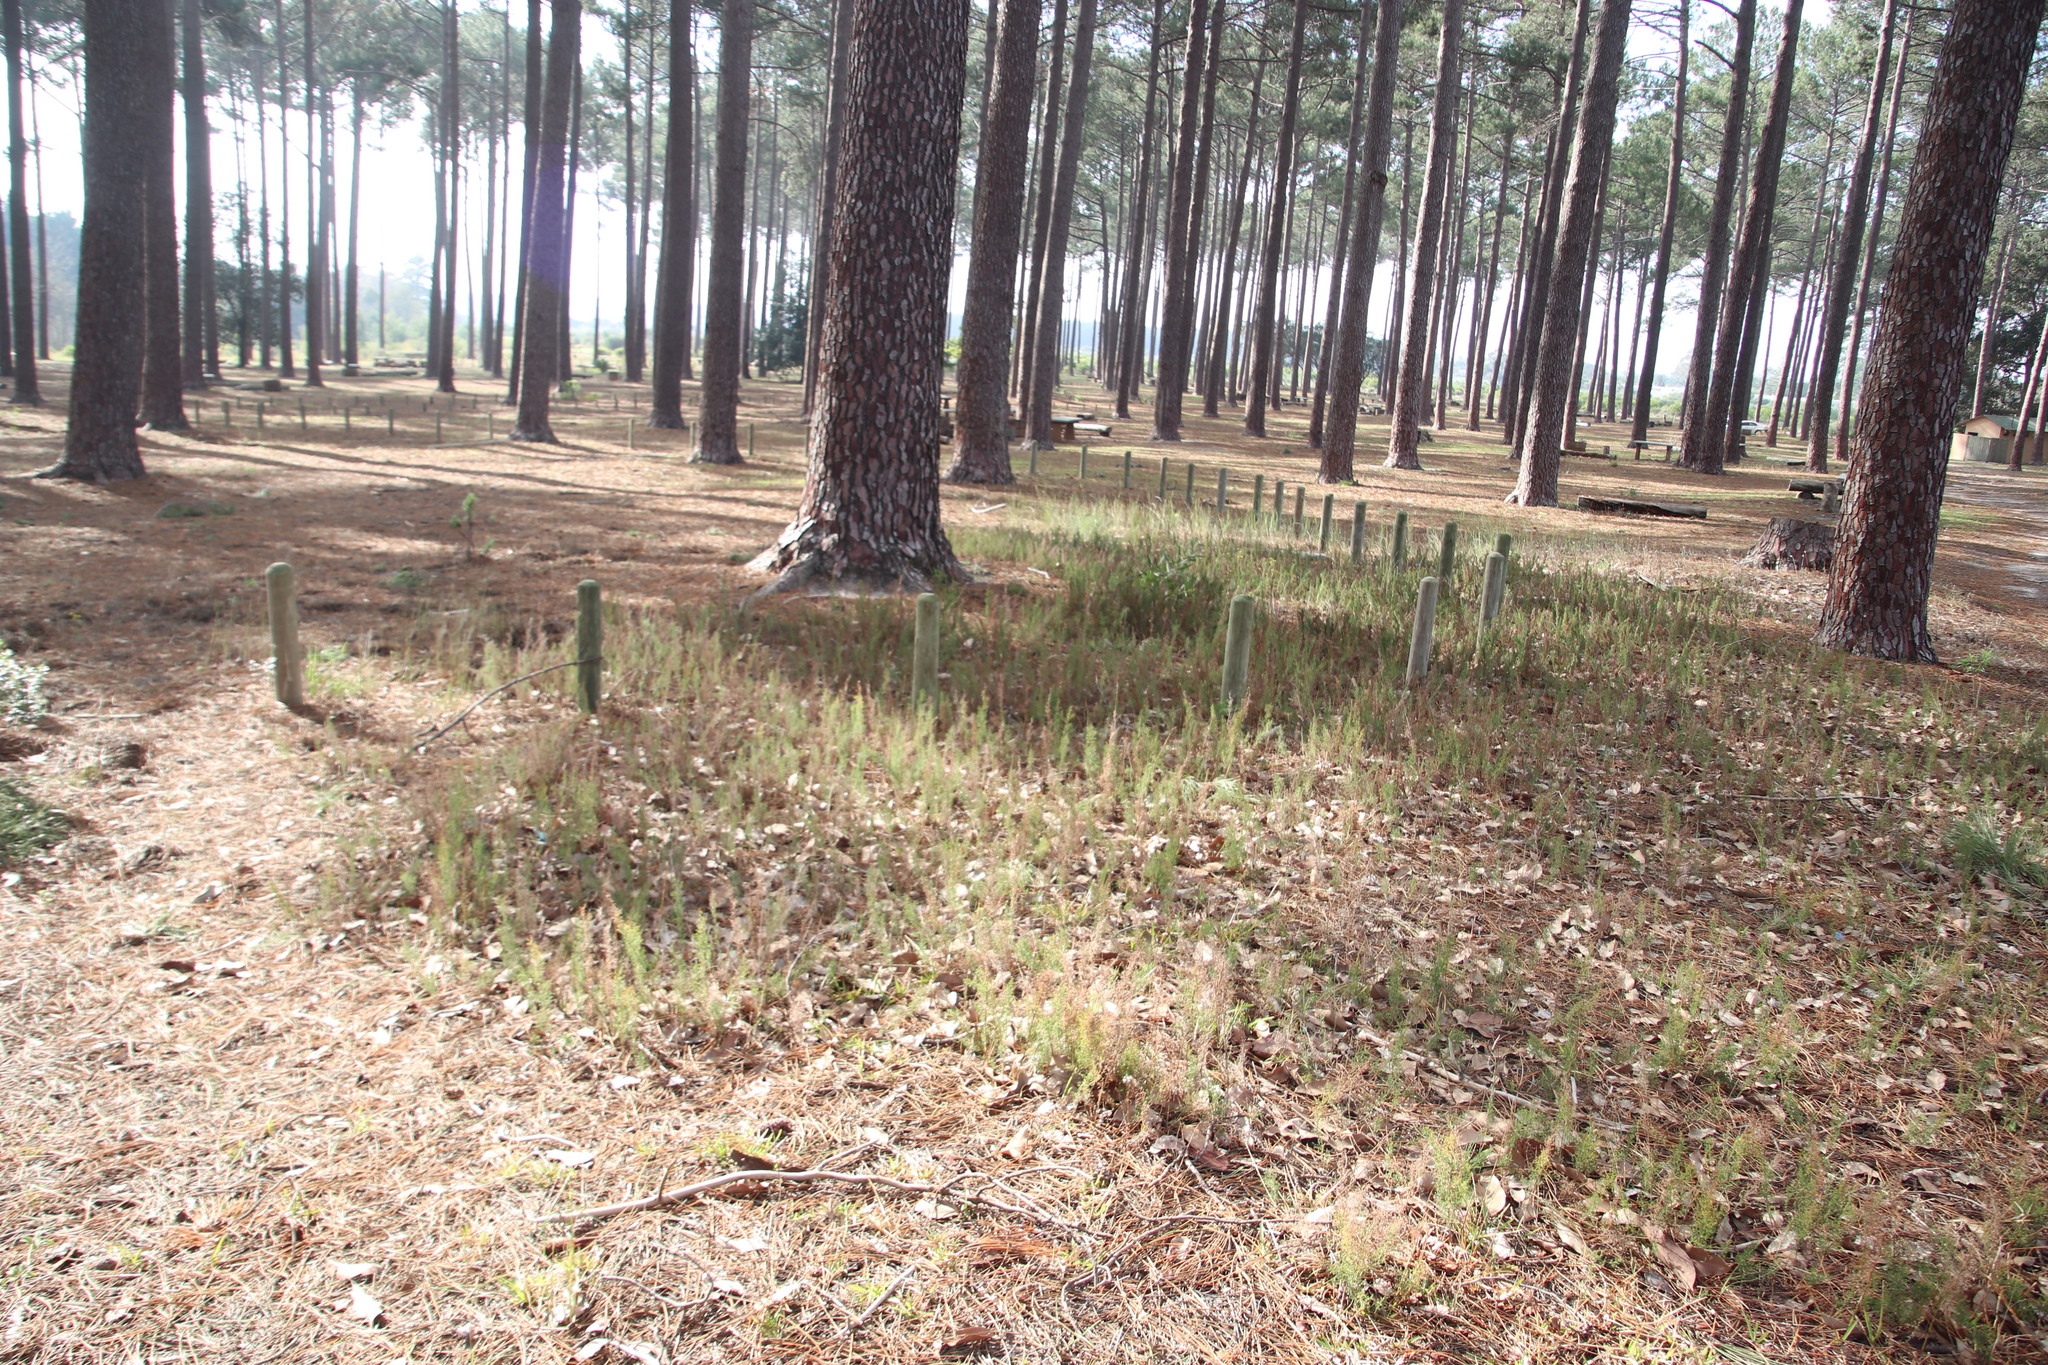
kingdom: Plantae
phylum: Tracheophyta
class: Liliopsida
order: Poales
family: Restionaceae
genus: Thamnochortus
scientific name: Thamnochortus fruticosus
